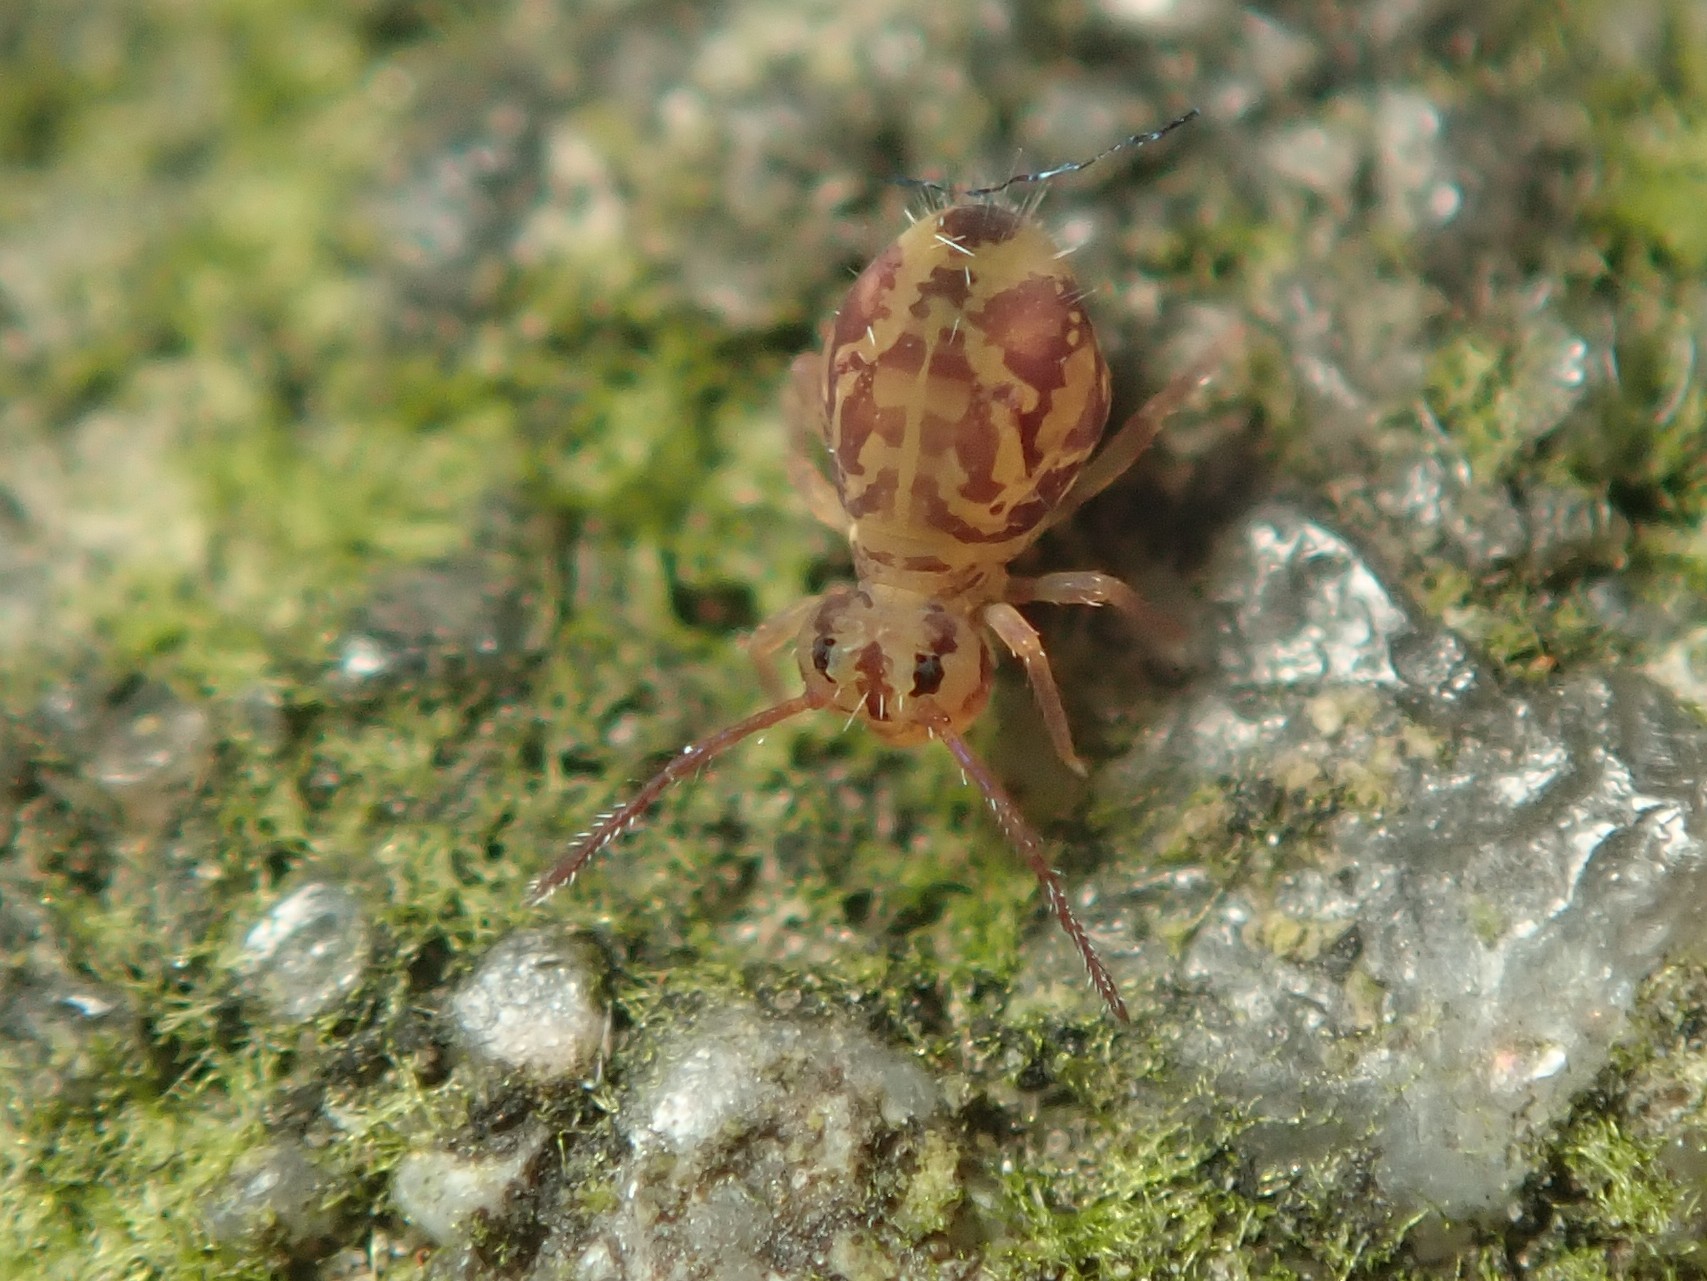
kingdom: Animalia
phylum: Arthropoda
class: Collembola
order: Symphypleona
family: Dicyrtomidae
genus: Dicyrtomina
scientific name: Dicyrtomina ornata
